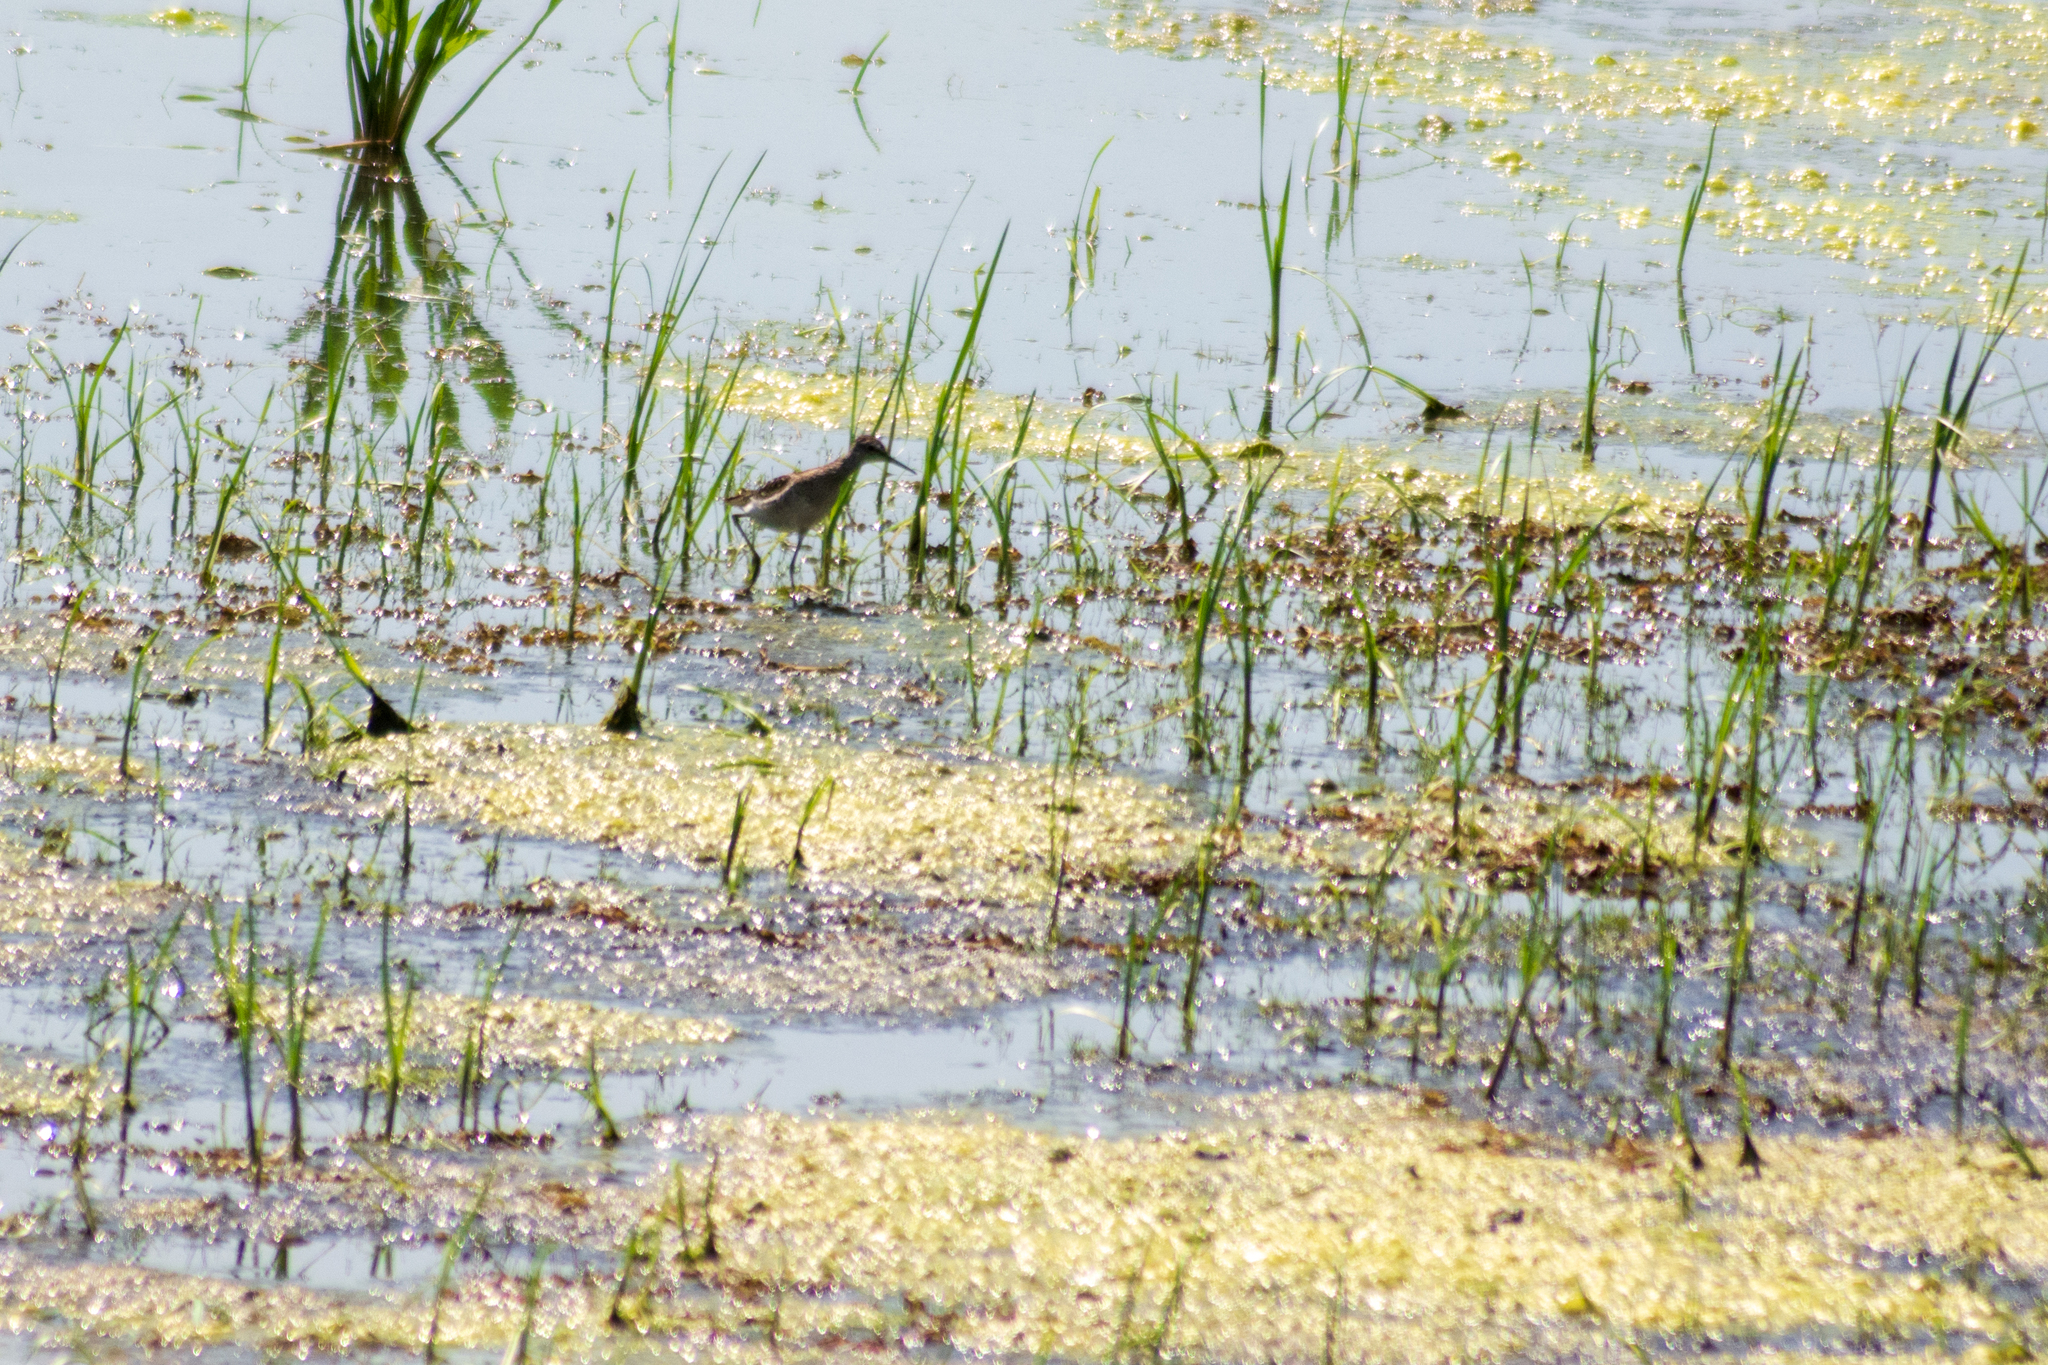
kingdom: Animalia
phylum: Chordata
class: Aves
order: Charadriiformes
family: Scolopacidae
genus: Tringa
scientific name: Tringa glareola
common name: Wood sandpiper
